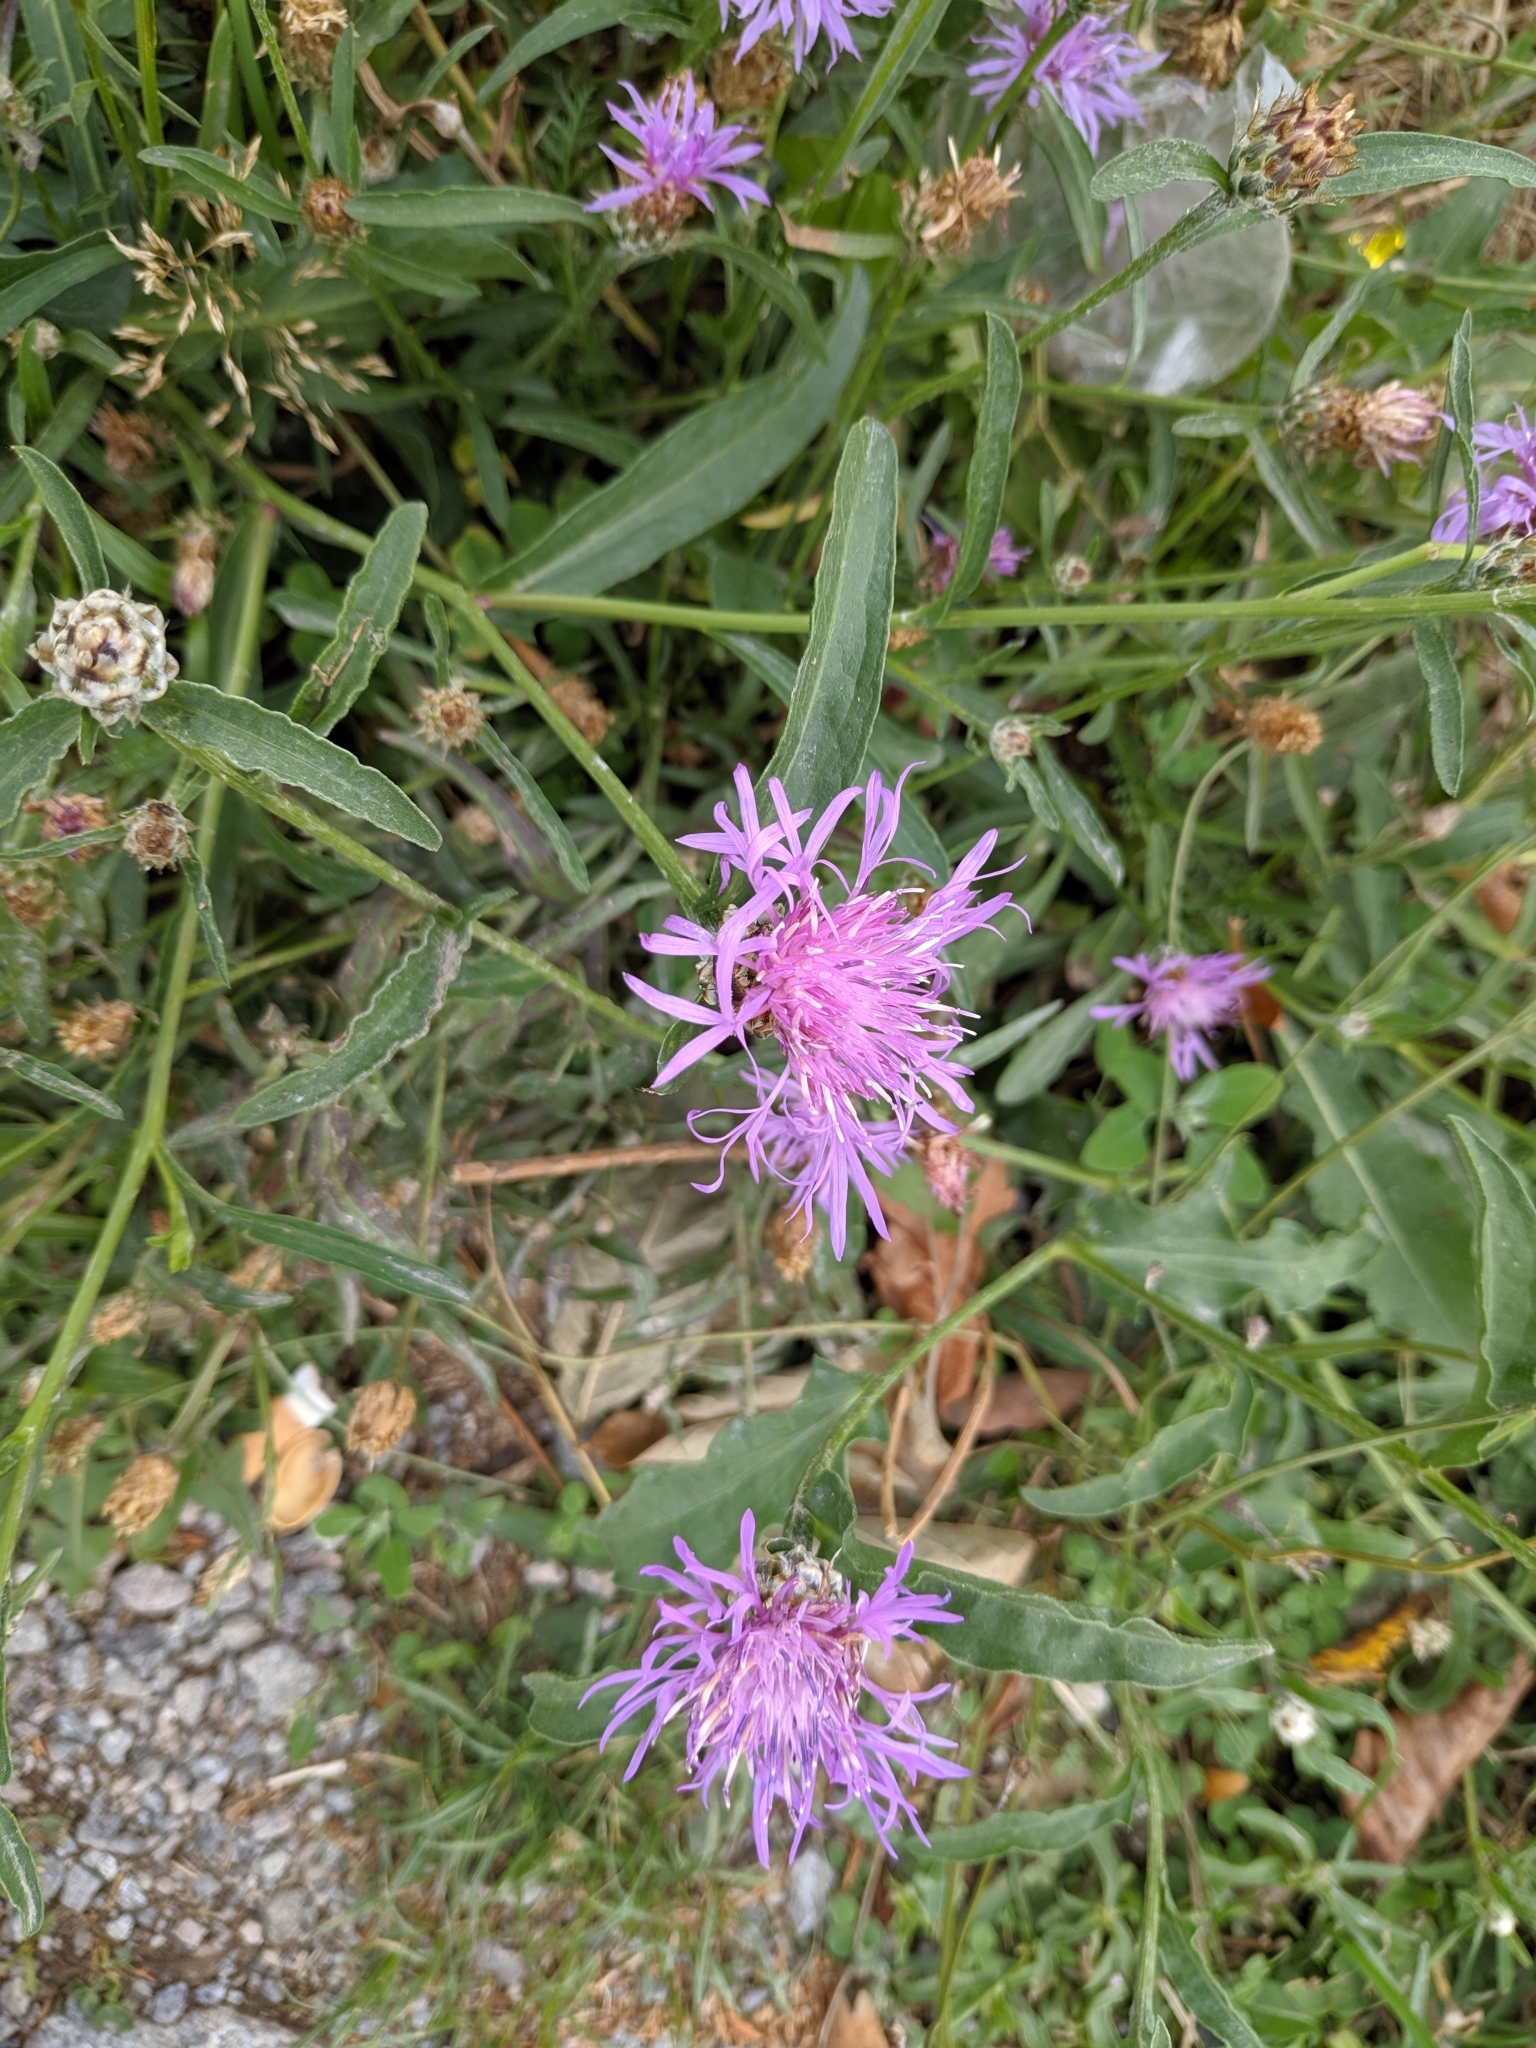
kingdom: Plantae
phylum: Tracheophyta
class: Magnoliopsida
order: Asterales
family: Asteraceae
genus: Centaurea
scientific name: Centaurea jacea
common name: Brown knapweed
